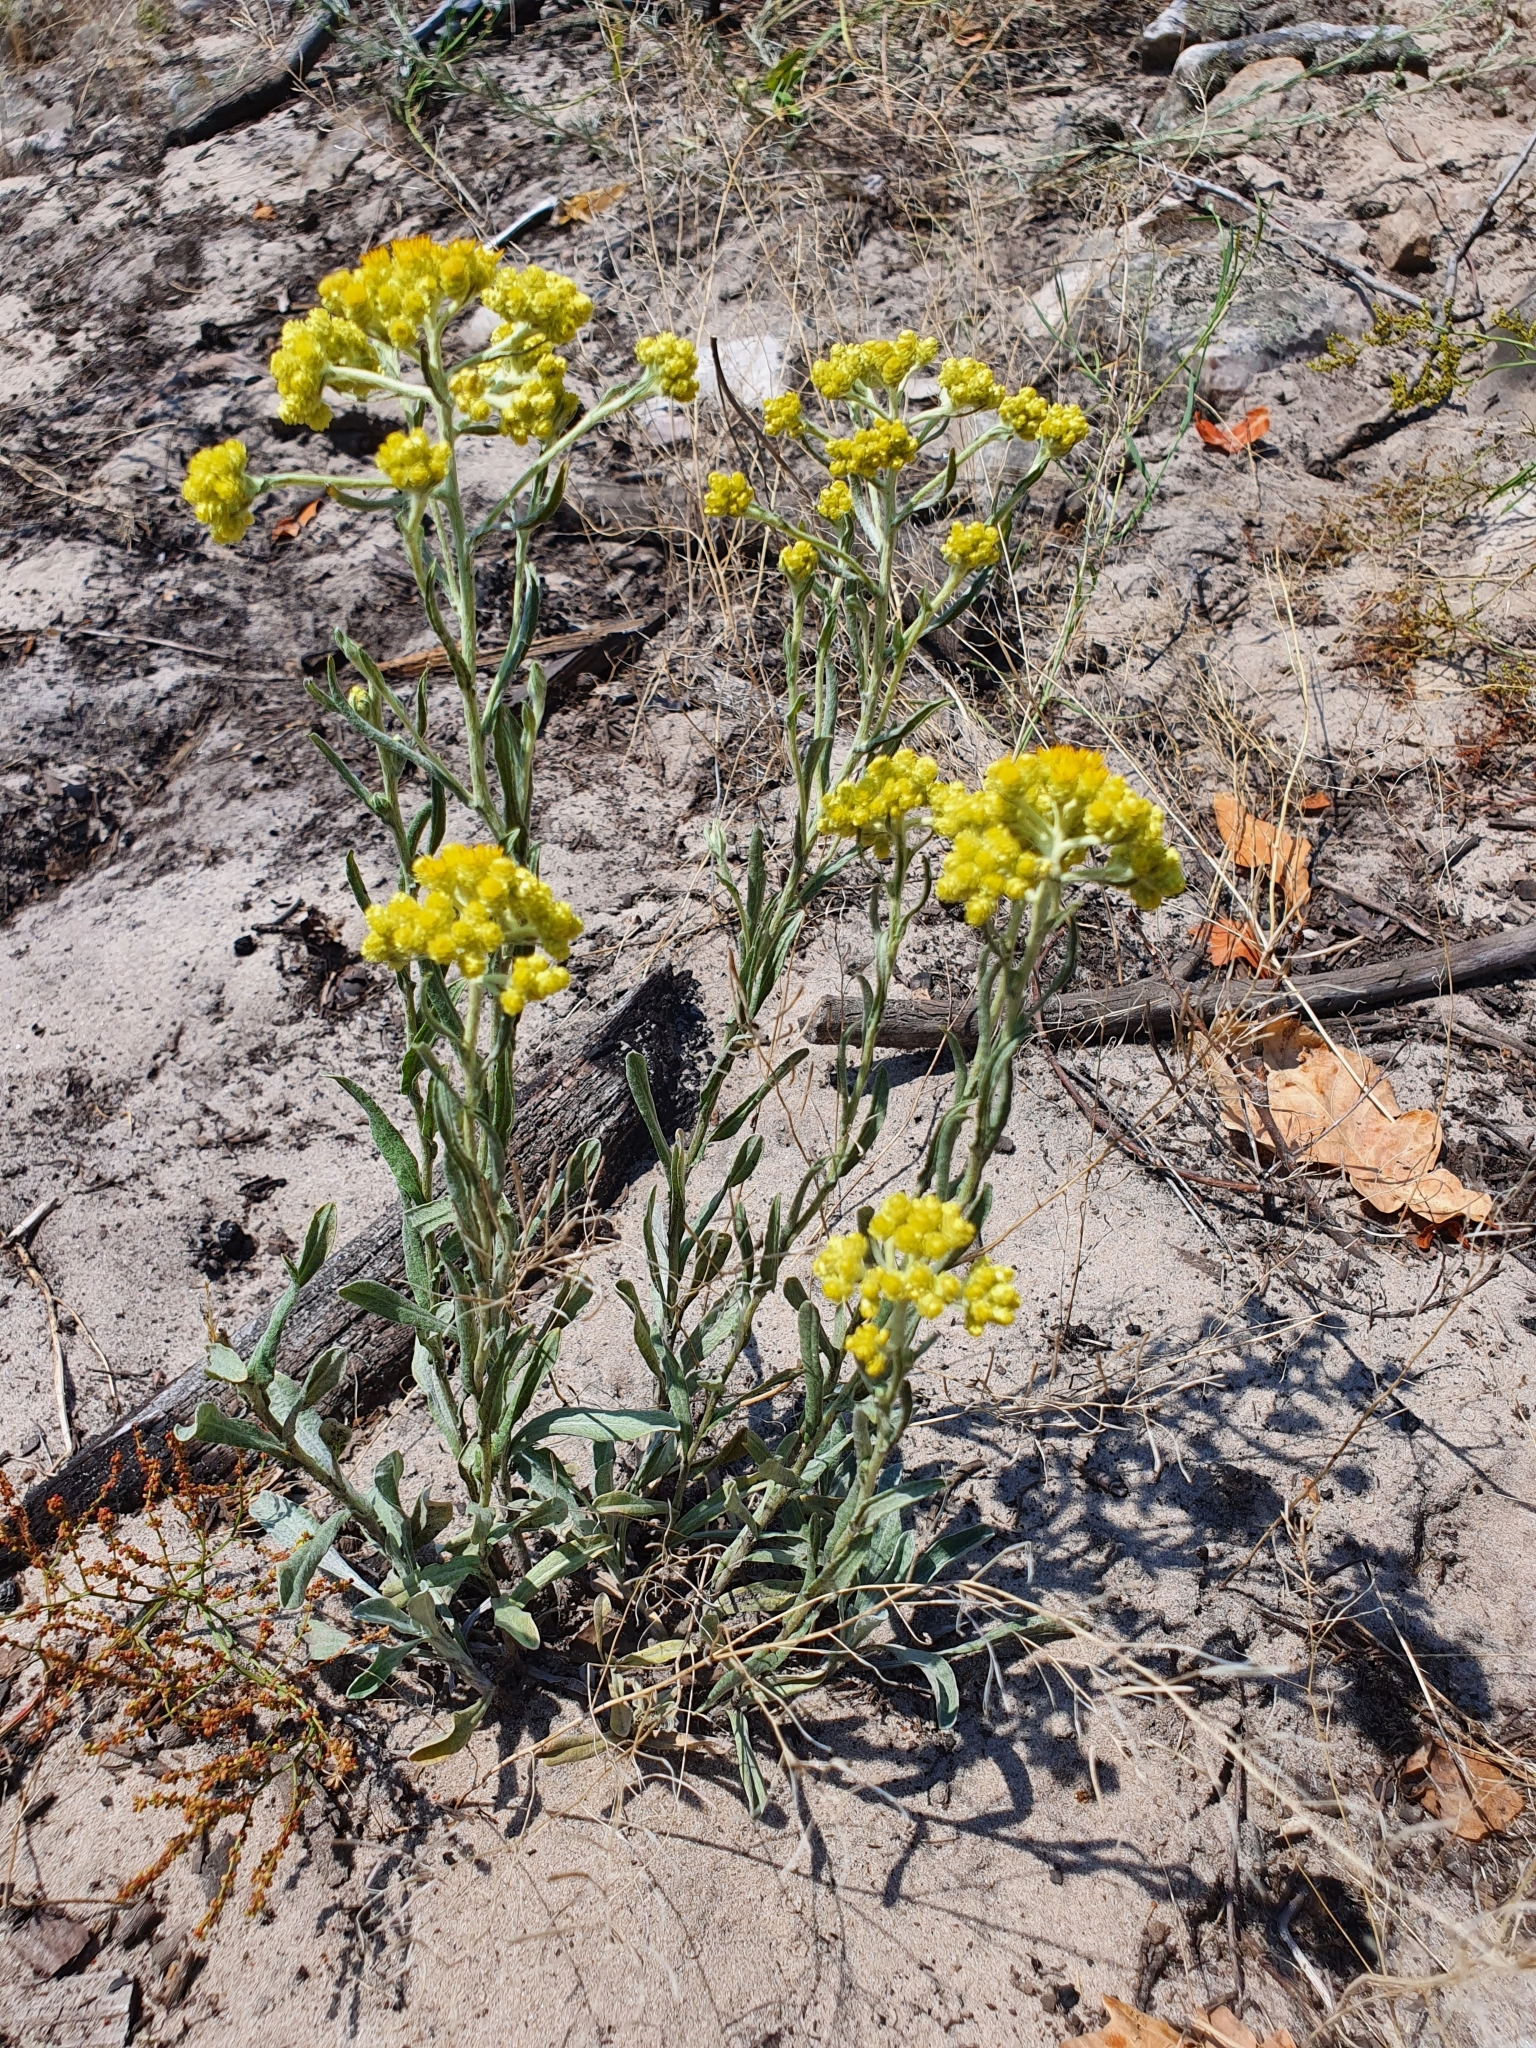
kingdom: Plantae
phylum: Tracheophyta
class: Magnoliopsida
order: Asterales
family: Asteraceae
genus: Helichrysum
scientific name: Helichrysum arenarium
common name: Strawflower
